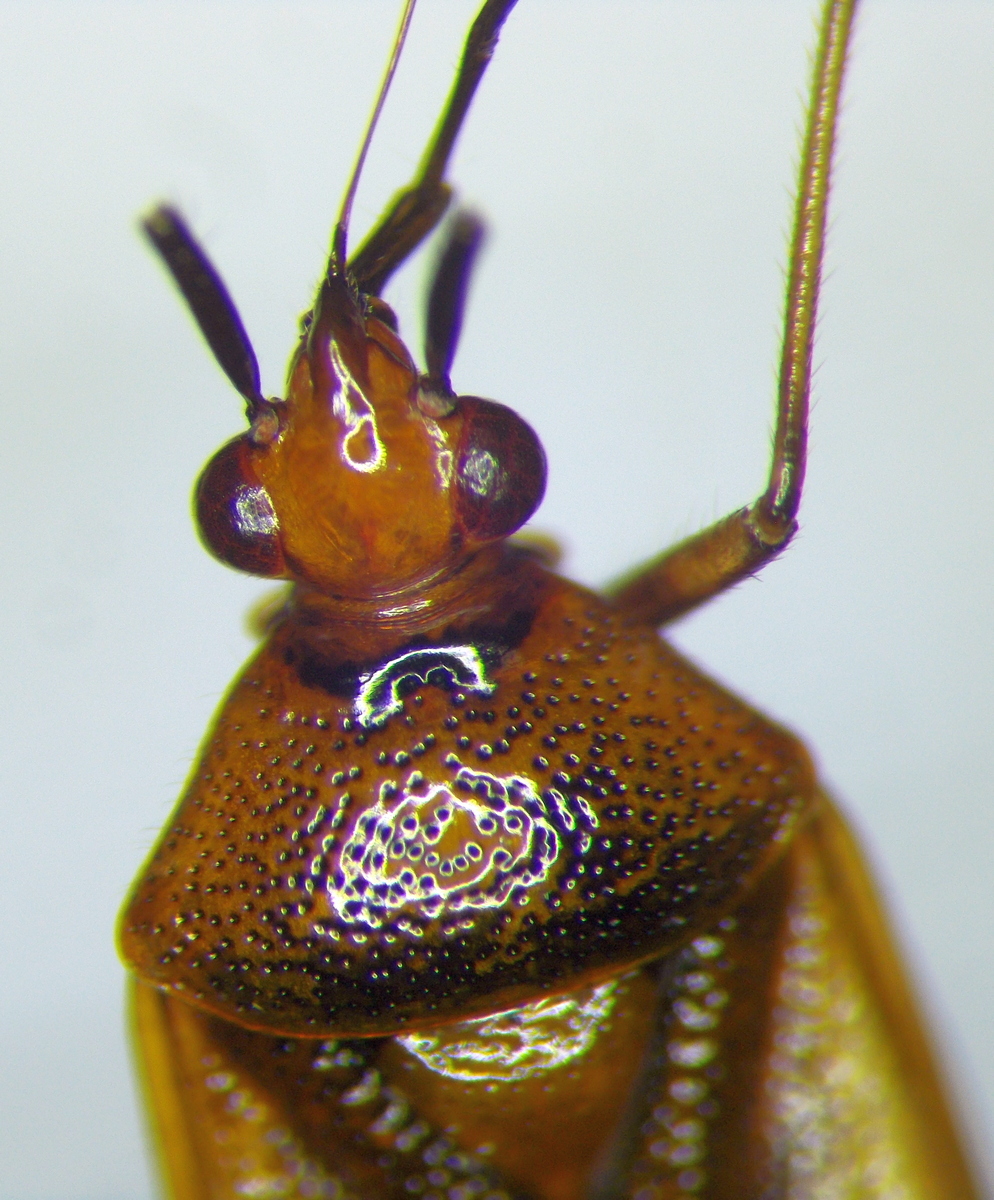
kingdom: Animalia
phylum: Arthropoda
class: Insecta
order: Hemiptera
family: Miridae
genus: Deraeocoris
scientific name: Deraeocoris ruber
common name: Plant bug
